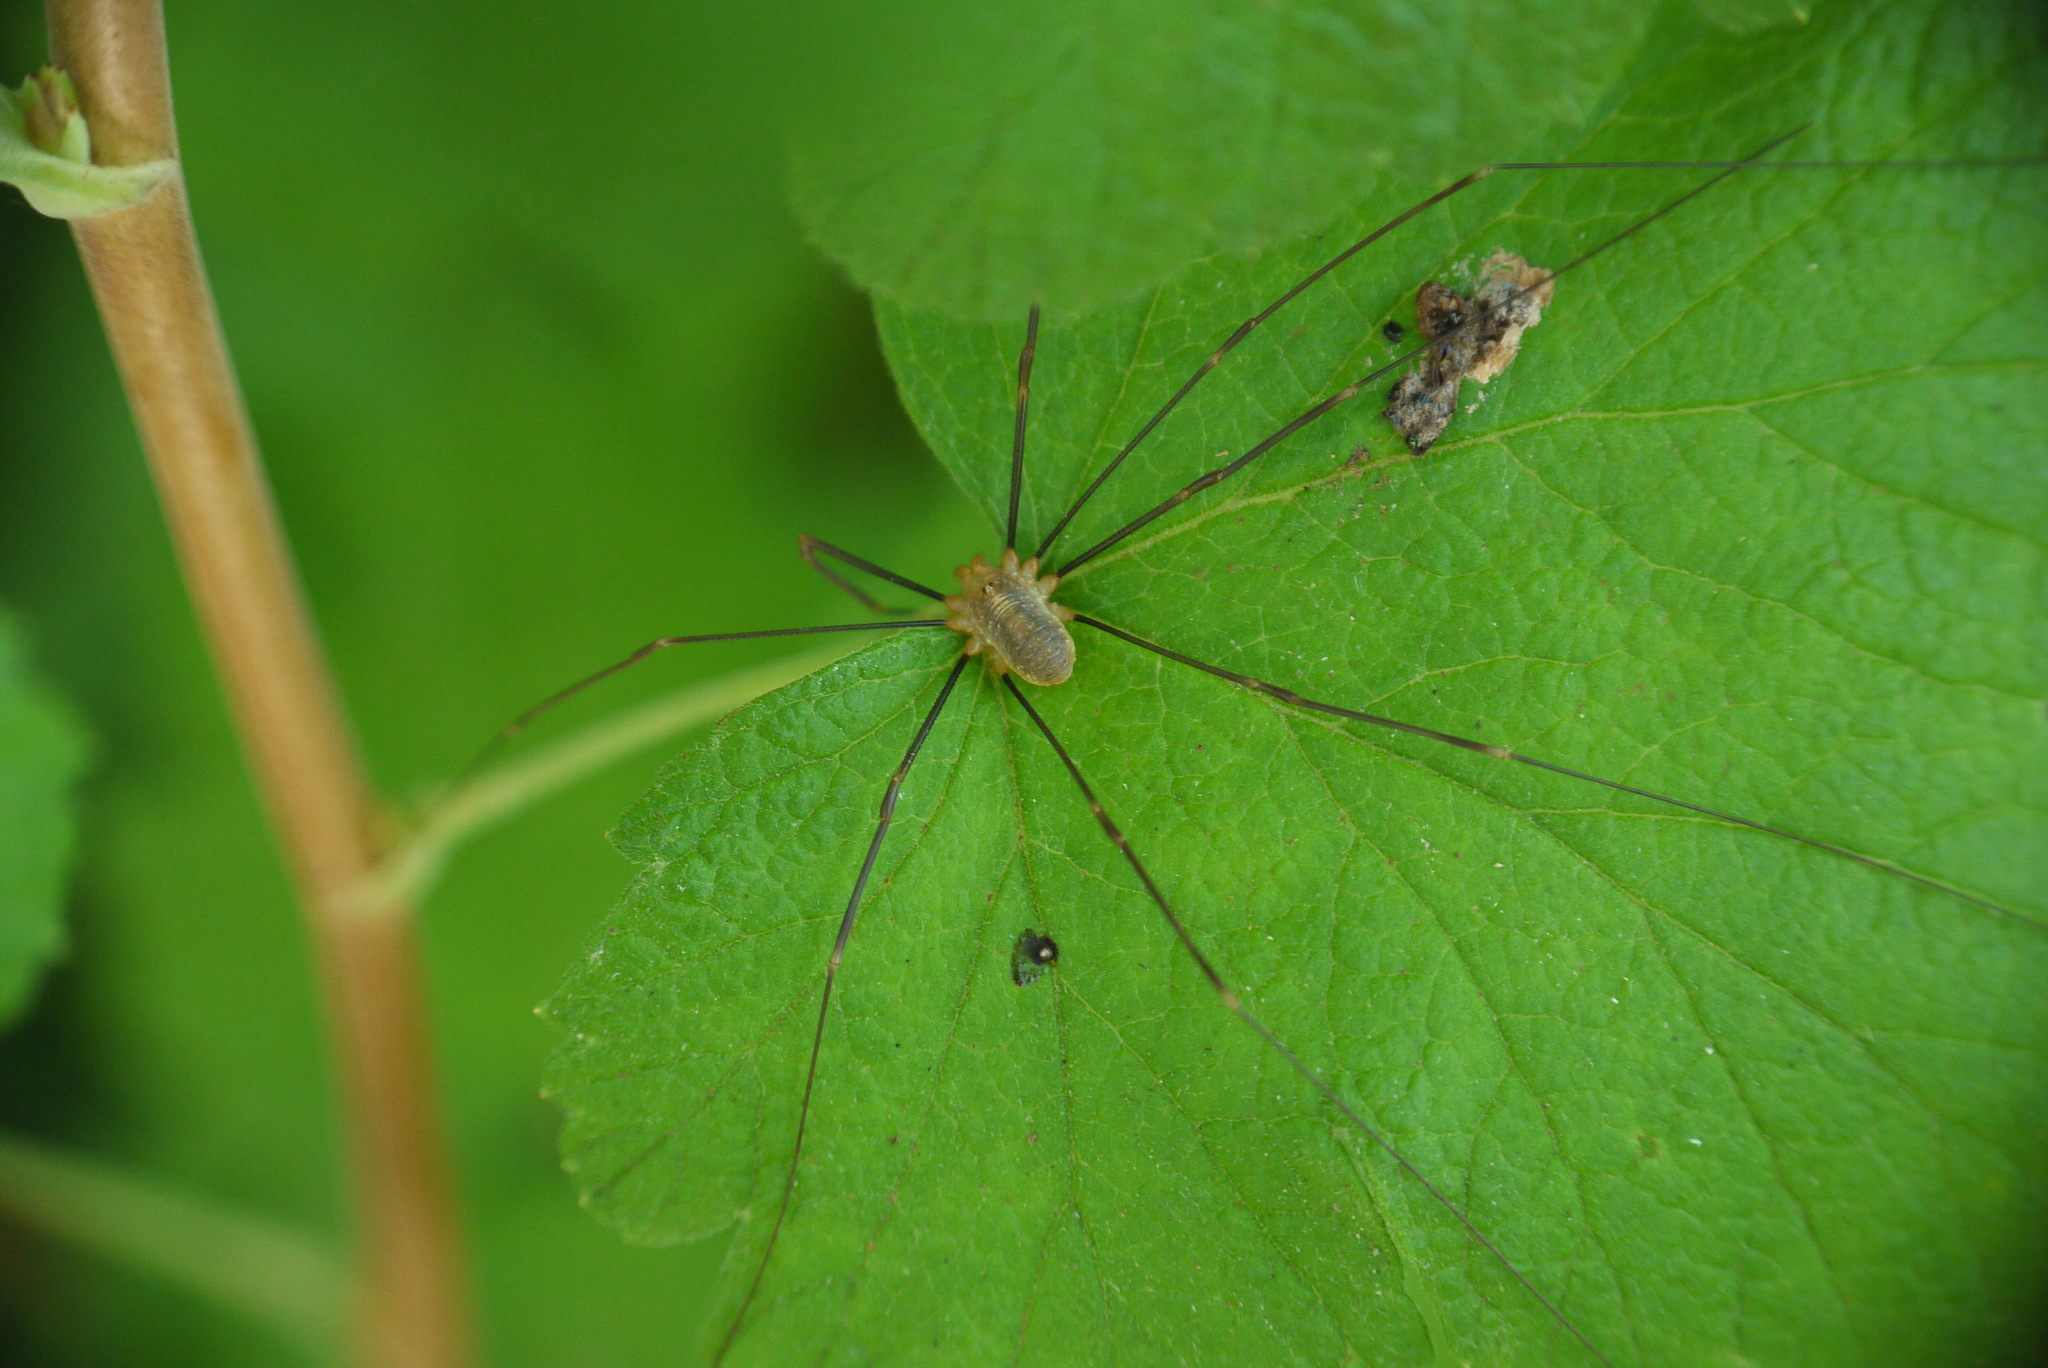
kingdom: Animalia
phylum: Arthropoda
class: Arachnida
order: Opiliones
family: Phalangiidae
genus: Opilio
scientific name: Opilio canestrinii
